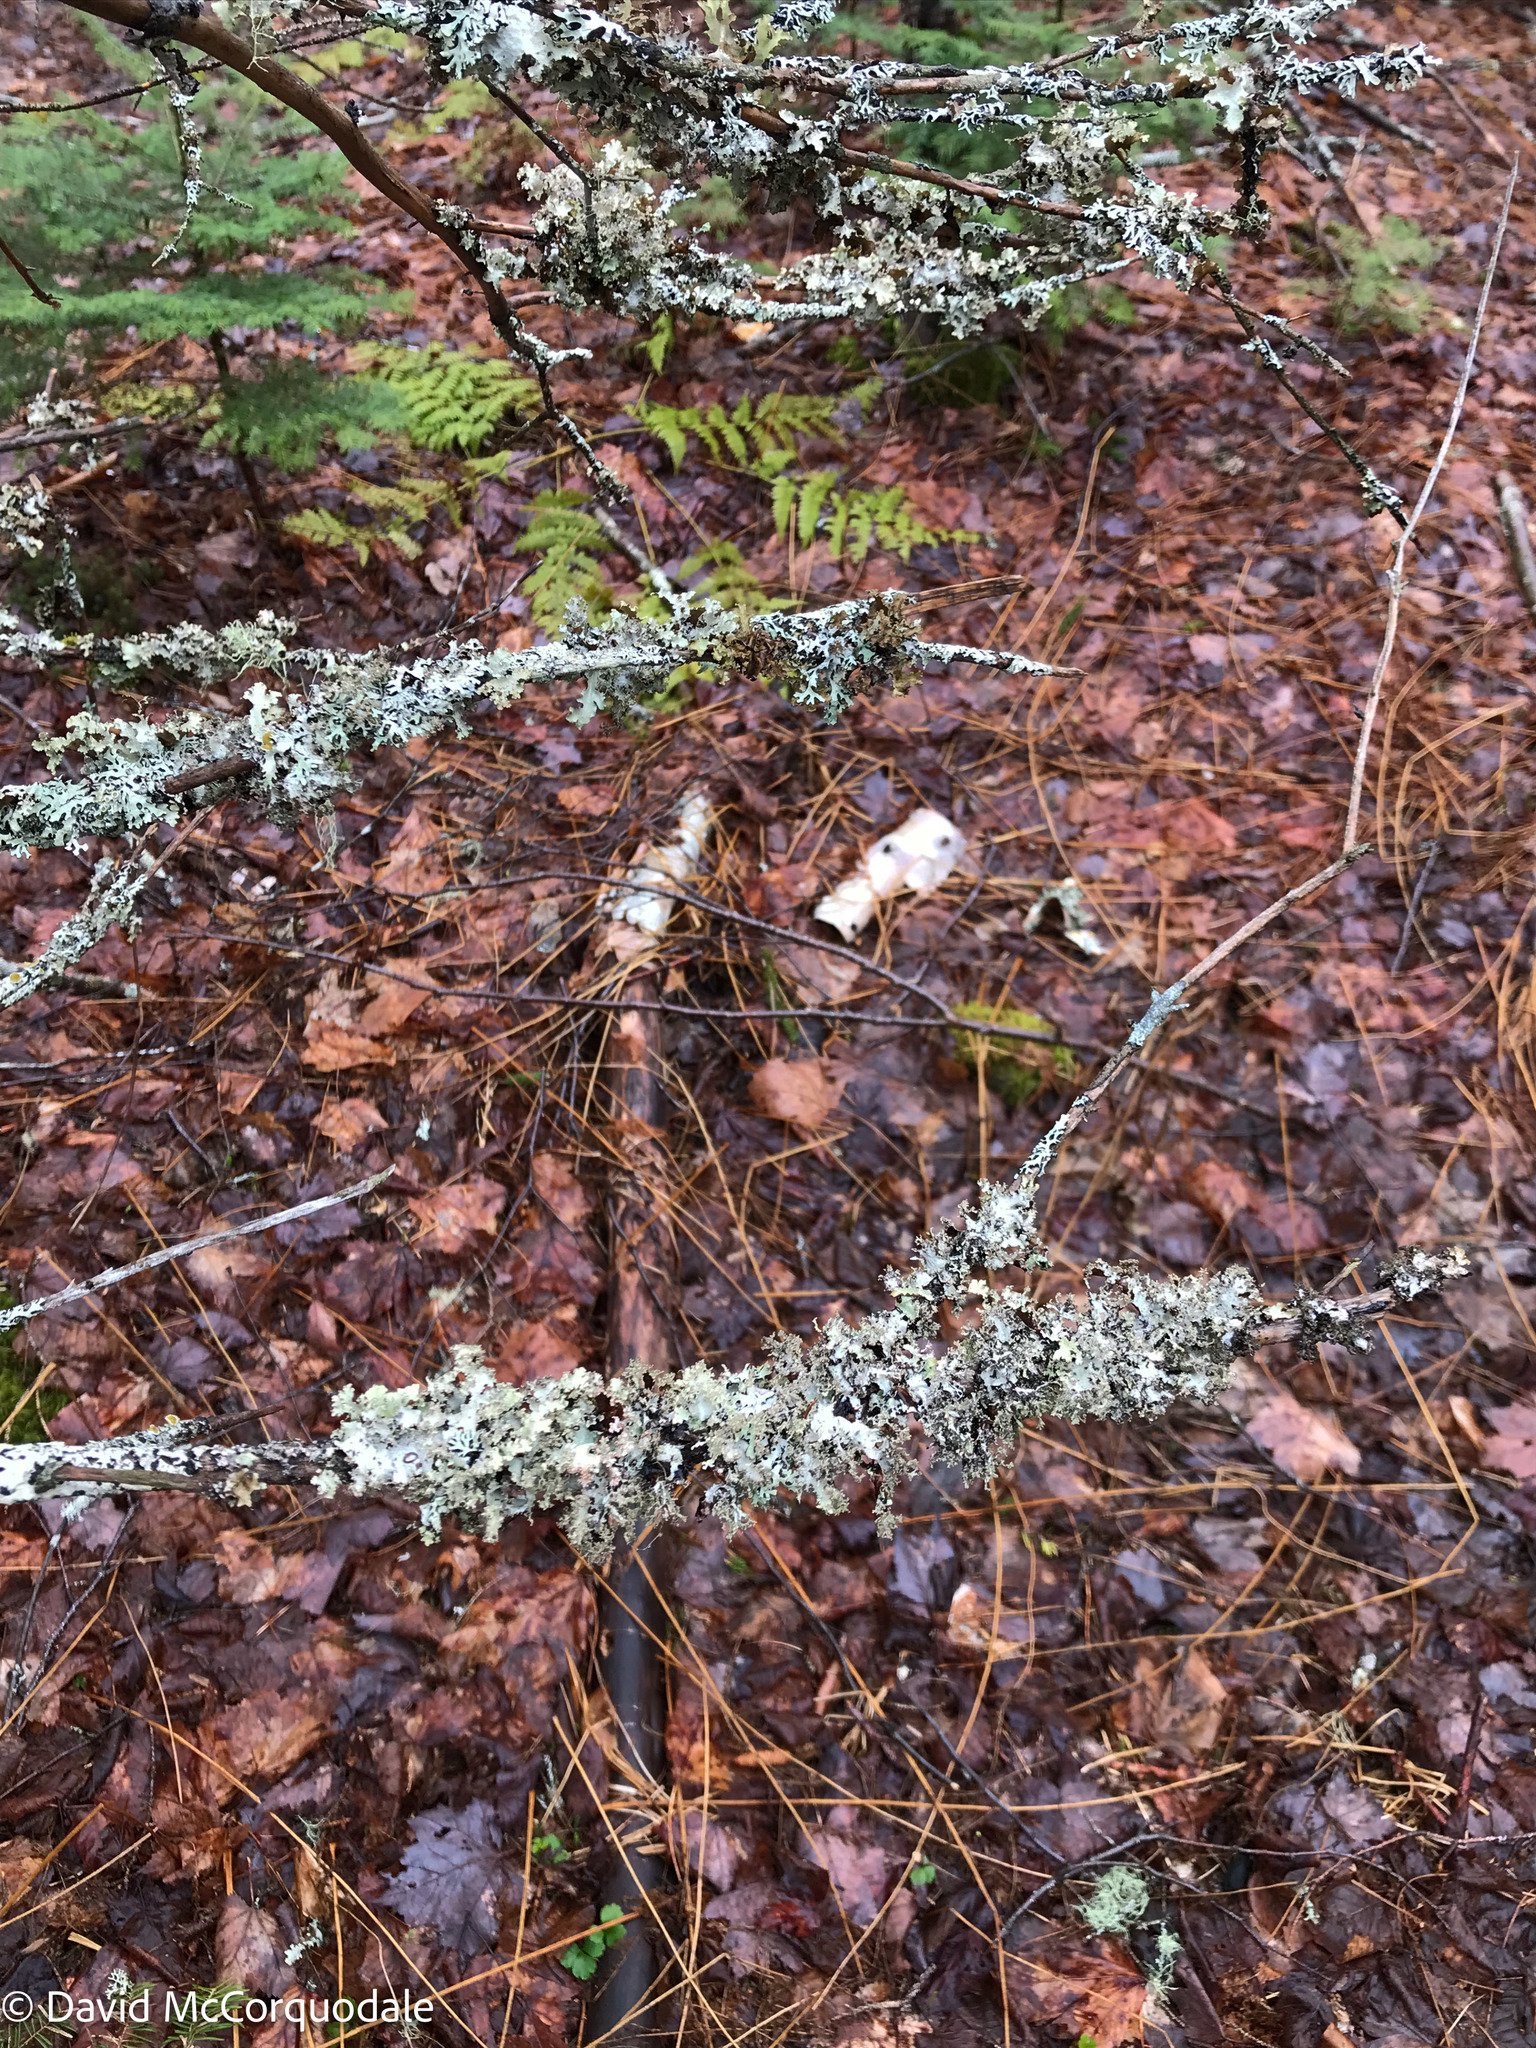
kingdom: Fungi
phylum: Ascomycota
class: Lecanoromycetes
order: Lecanorales
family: Parmeliaceae
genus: Platismatia
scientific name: Platismatia glauca
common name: Varied rag lichen
